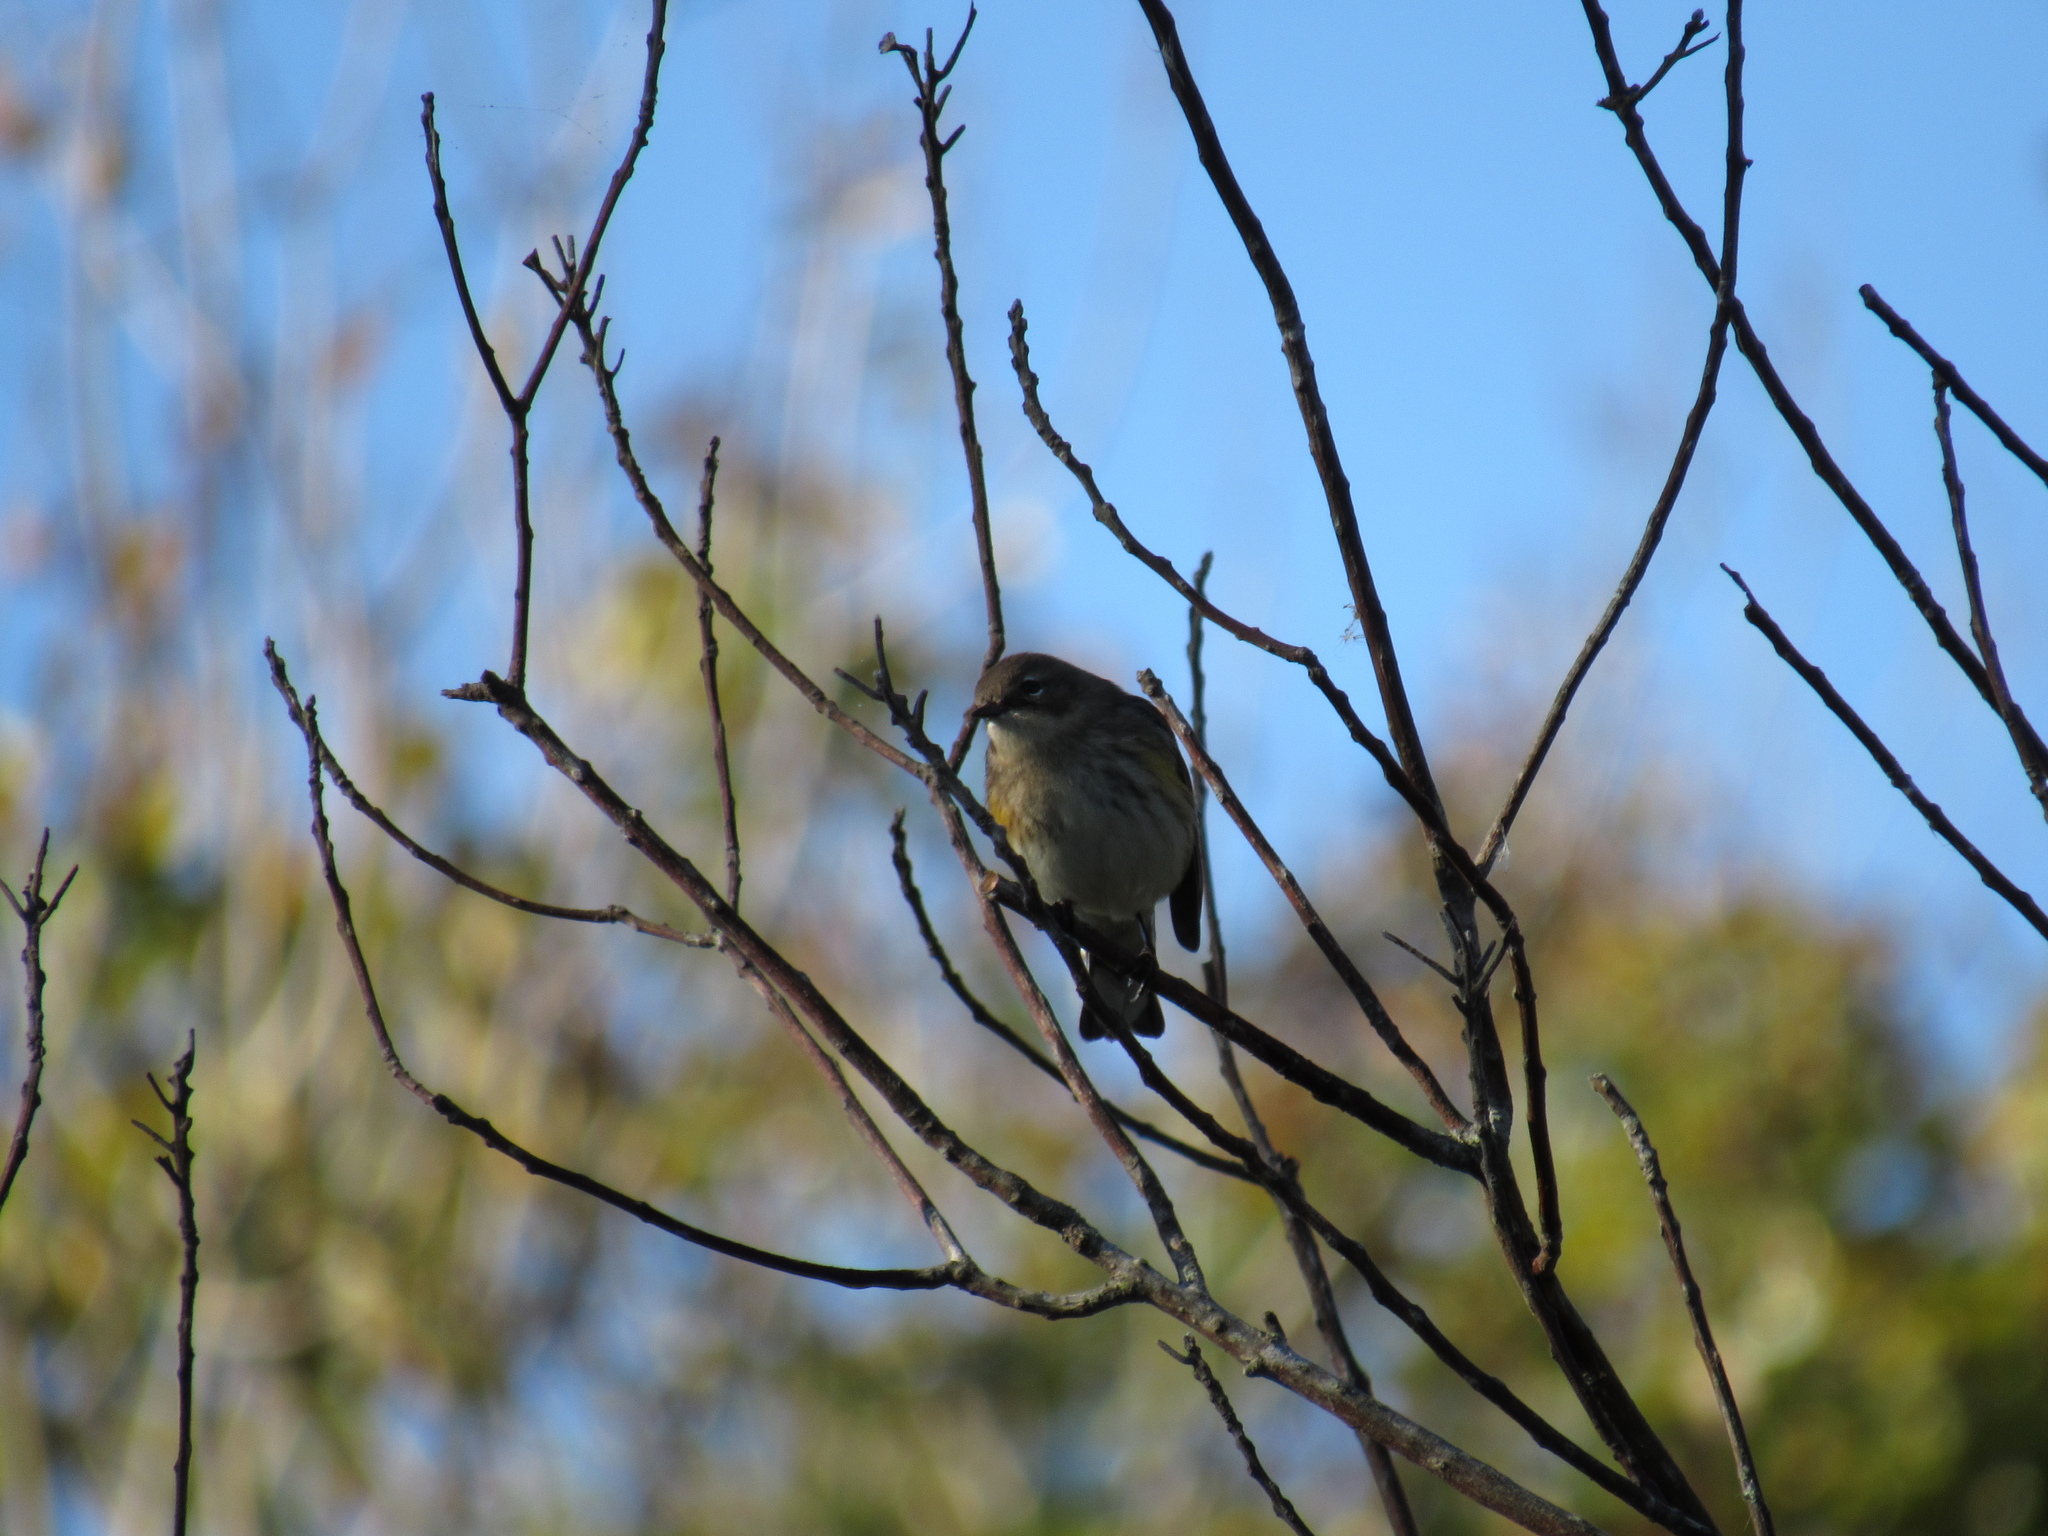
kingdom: Animalia
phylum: Chordata
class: Aves
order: Passeriformes
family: Parulidae
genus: Setophaga
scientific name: Setophaga coronata
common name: Myrtle warbler
